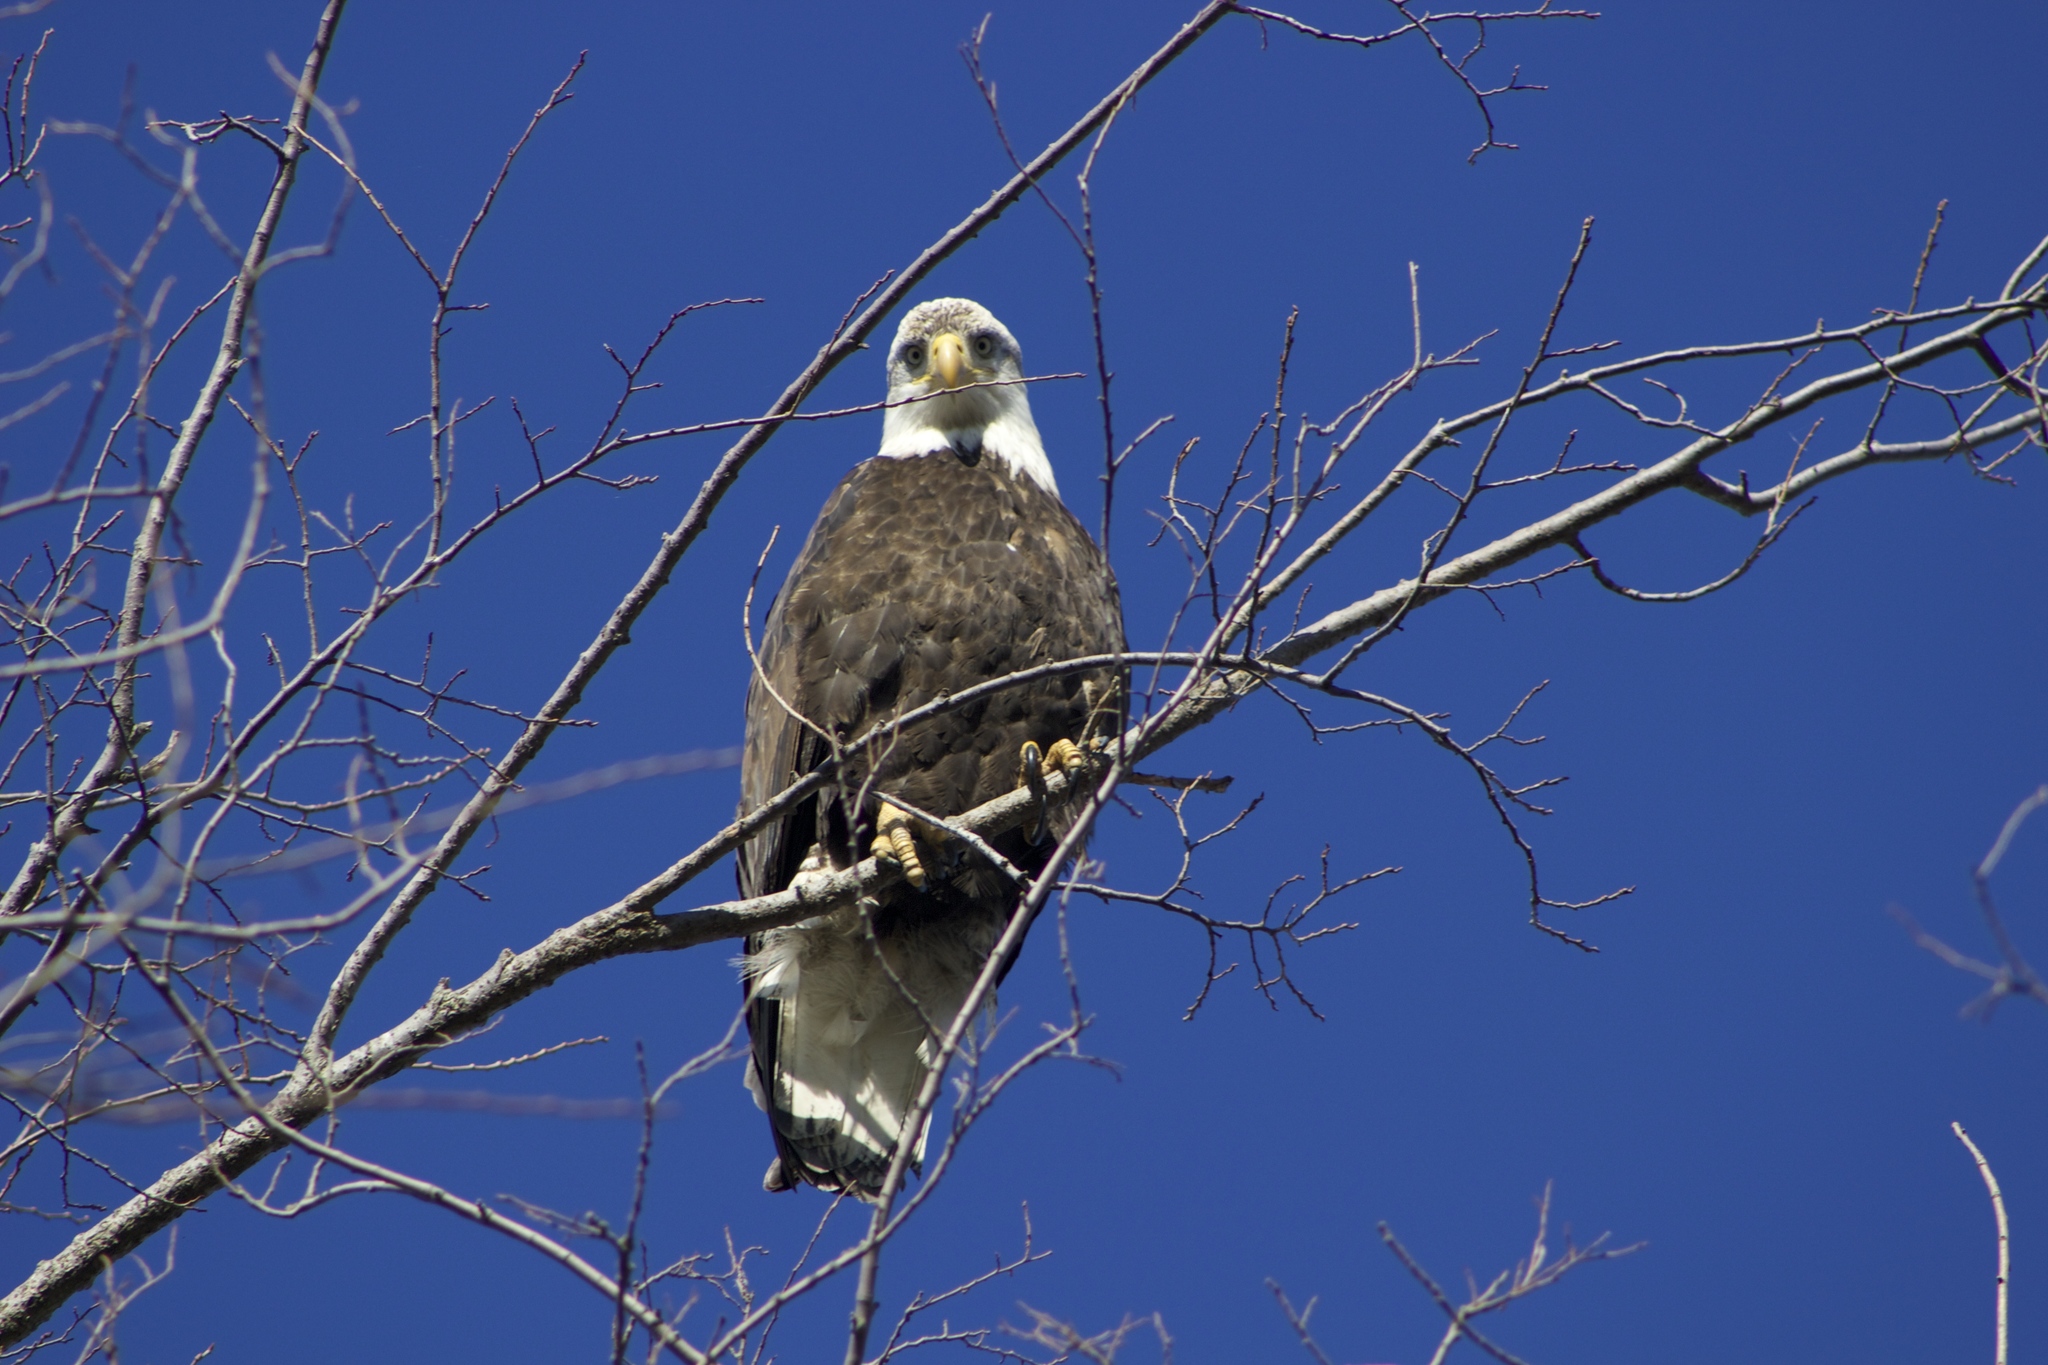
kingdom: Animalia
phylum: Chordata
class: Aves
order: Accipitriformes
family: Accipitridae
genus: Haliaeetus
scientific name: Haliaeetus leucocephalus
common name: Bald eagle
